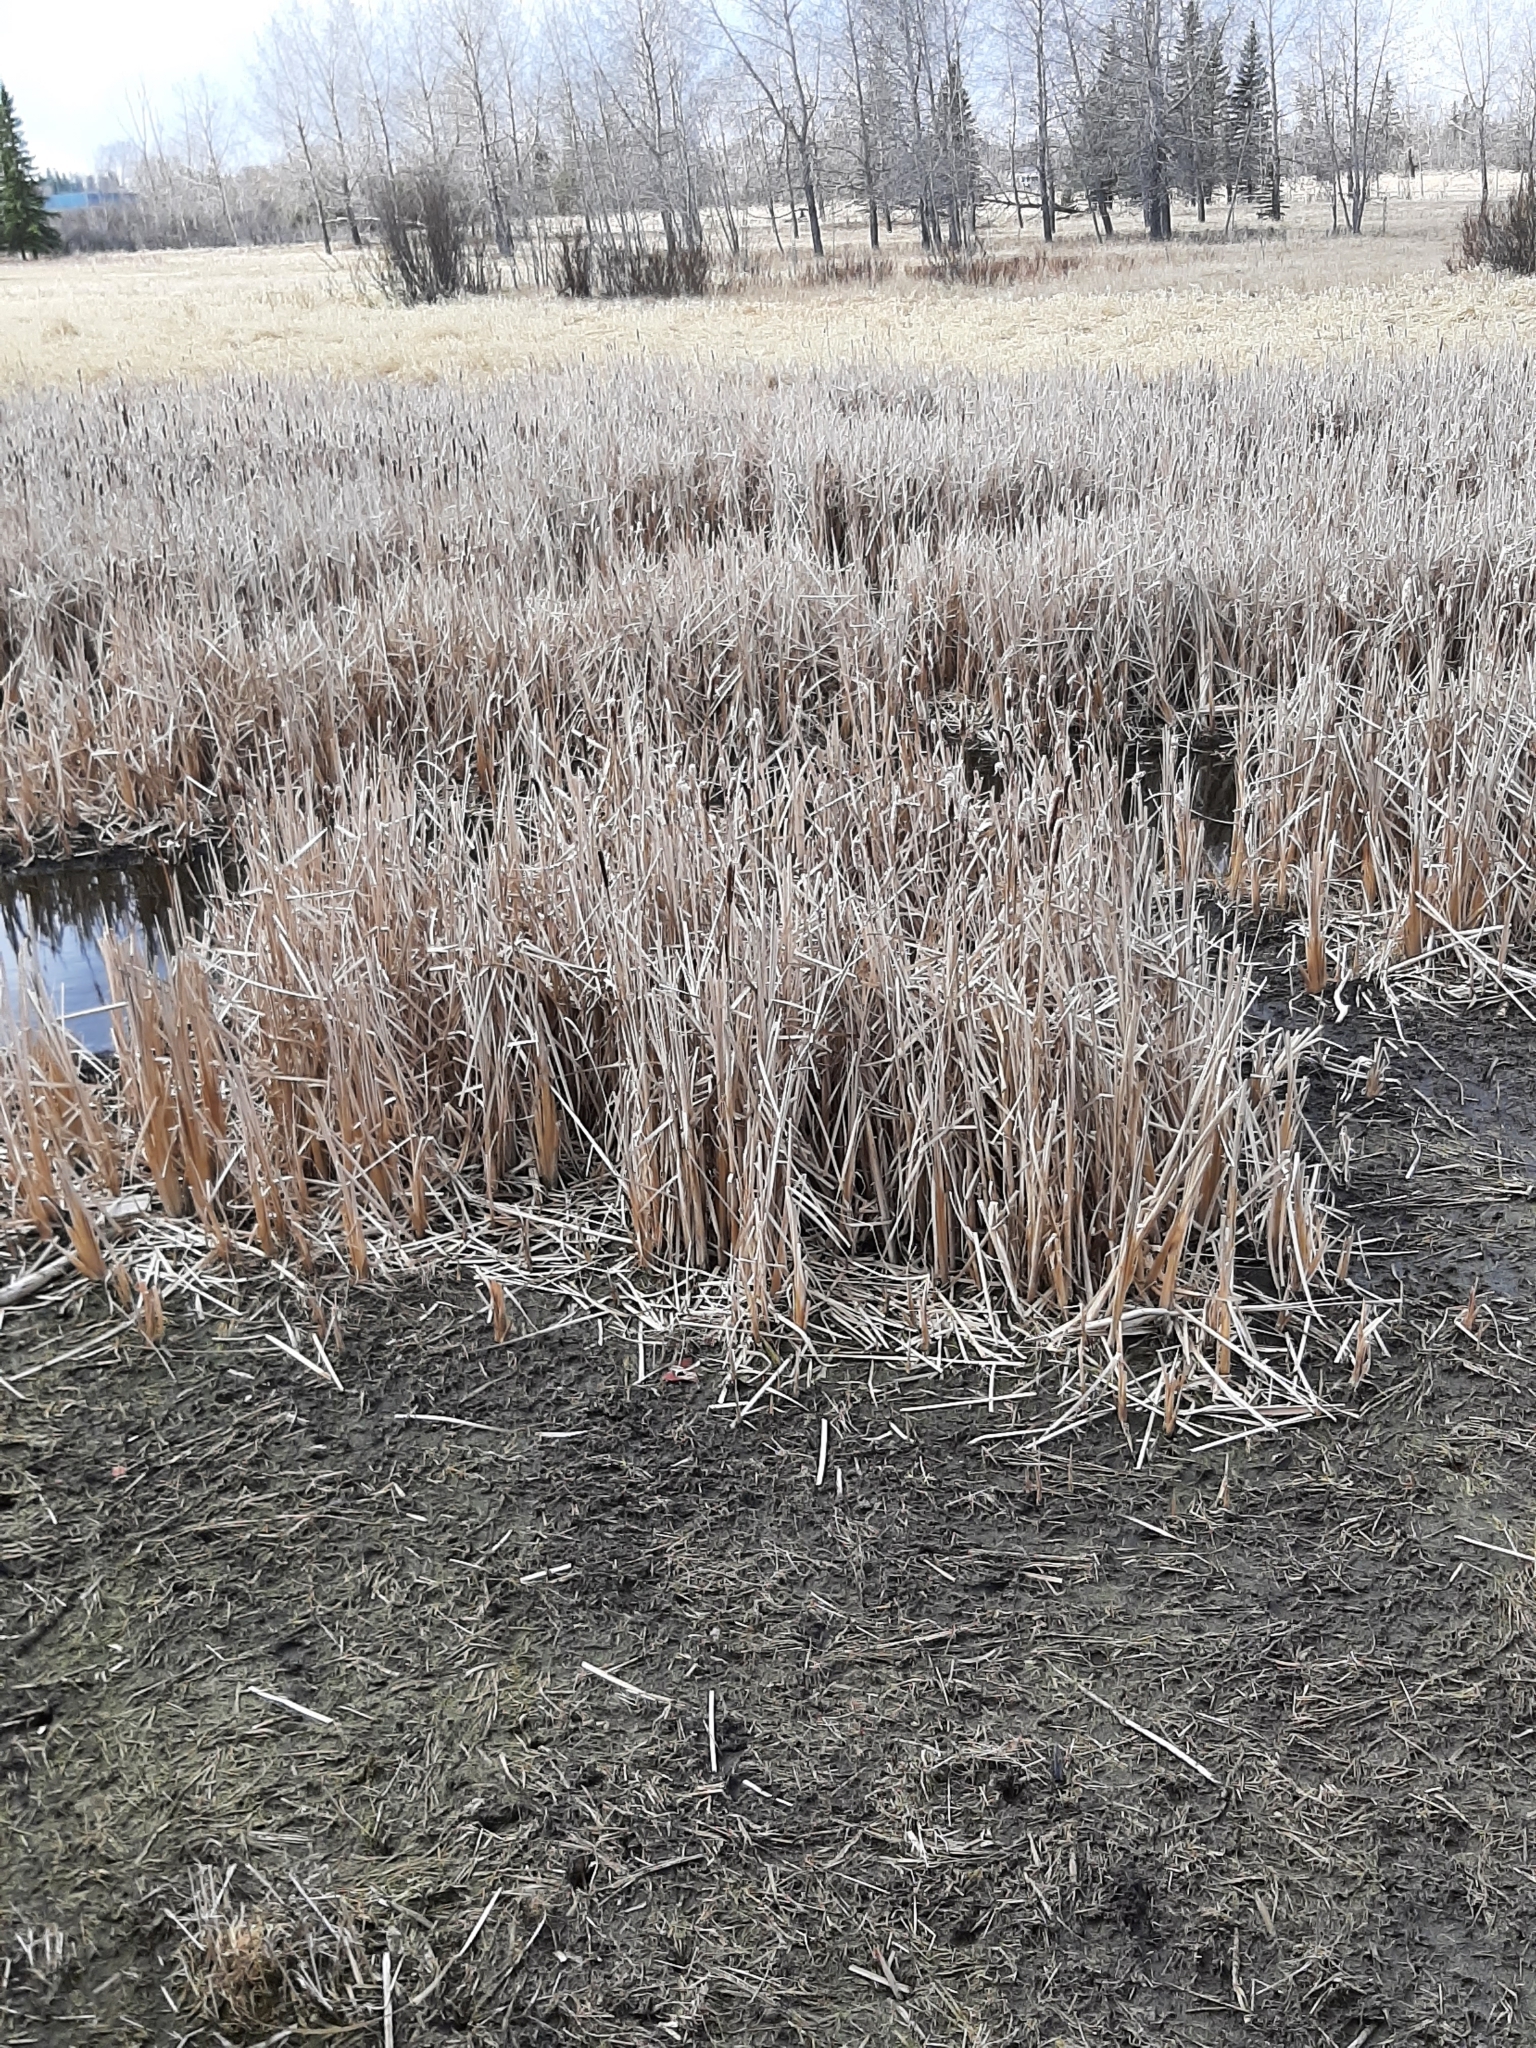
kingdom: Plantae
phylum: Tracheophyta
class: Liliopsida
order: Poales
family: Typhaceae
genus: Typha
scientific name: Typha latifolia
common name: Broadleaf cattail
